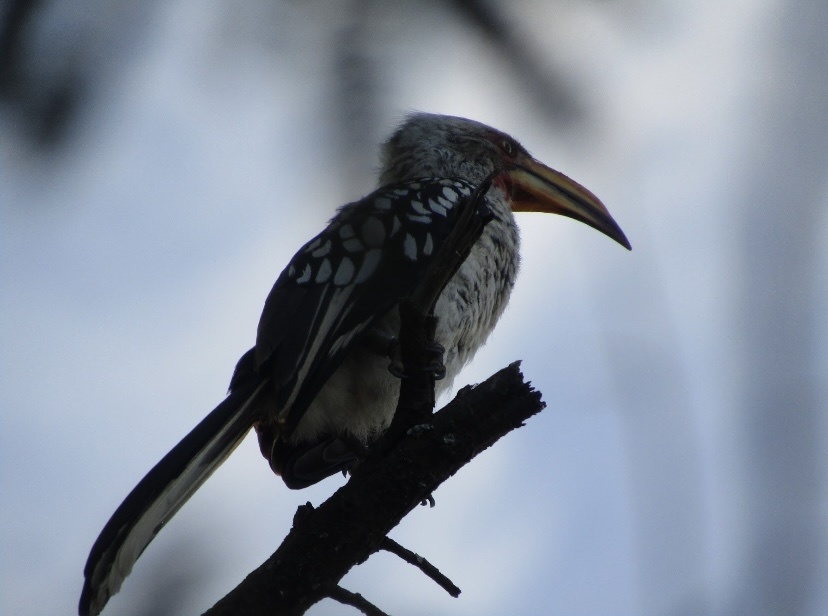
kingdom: Animalia
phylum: Chordata
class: Aves
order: Bucerotiformes
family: Bucerotidae
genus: Tockus
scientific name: Tockus leucomelas
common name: Southern yellow-billed hornbill
